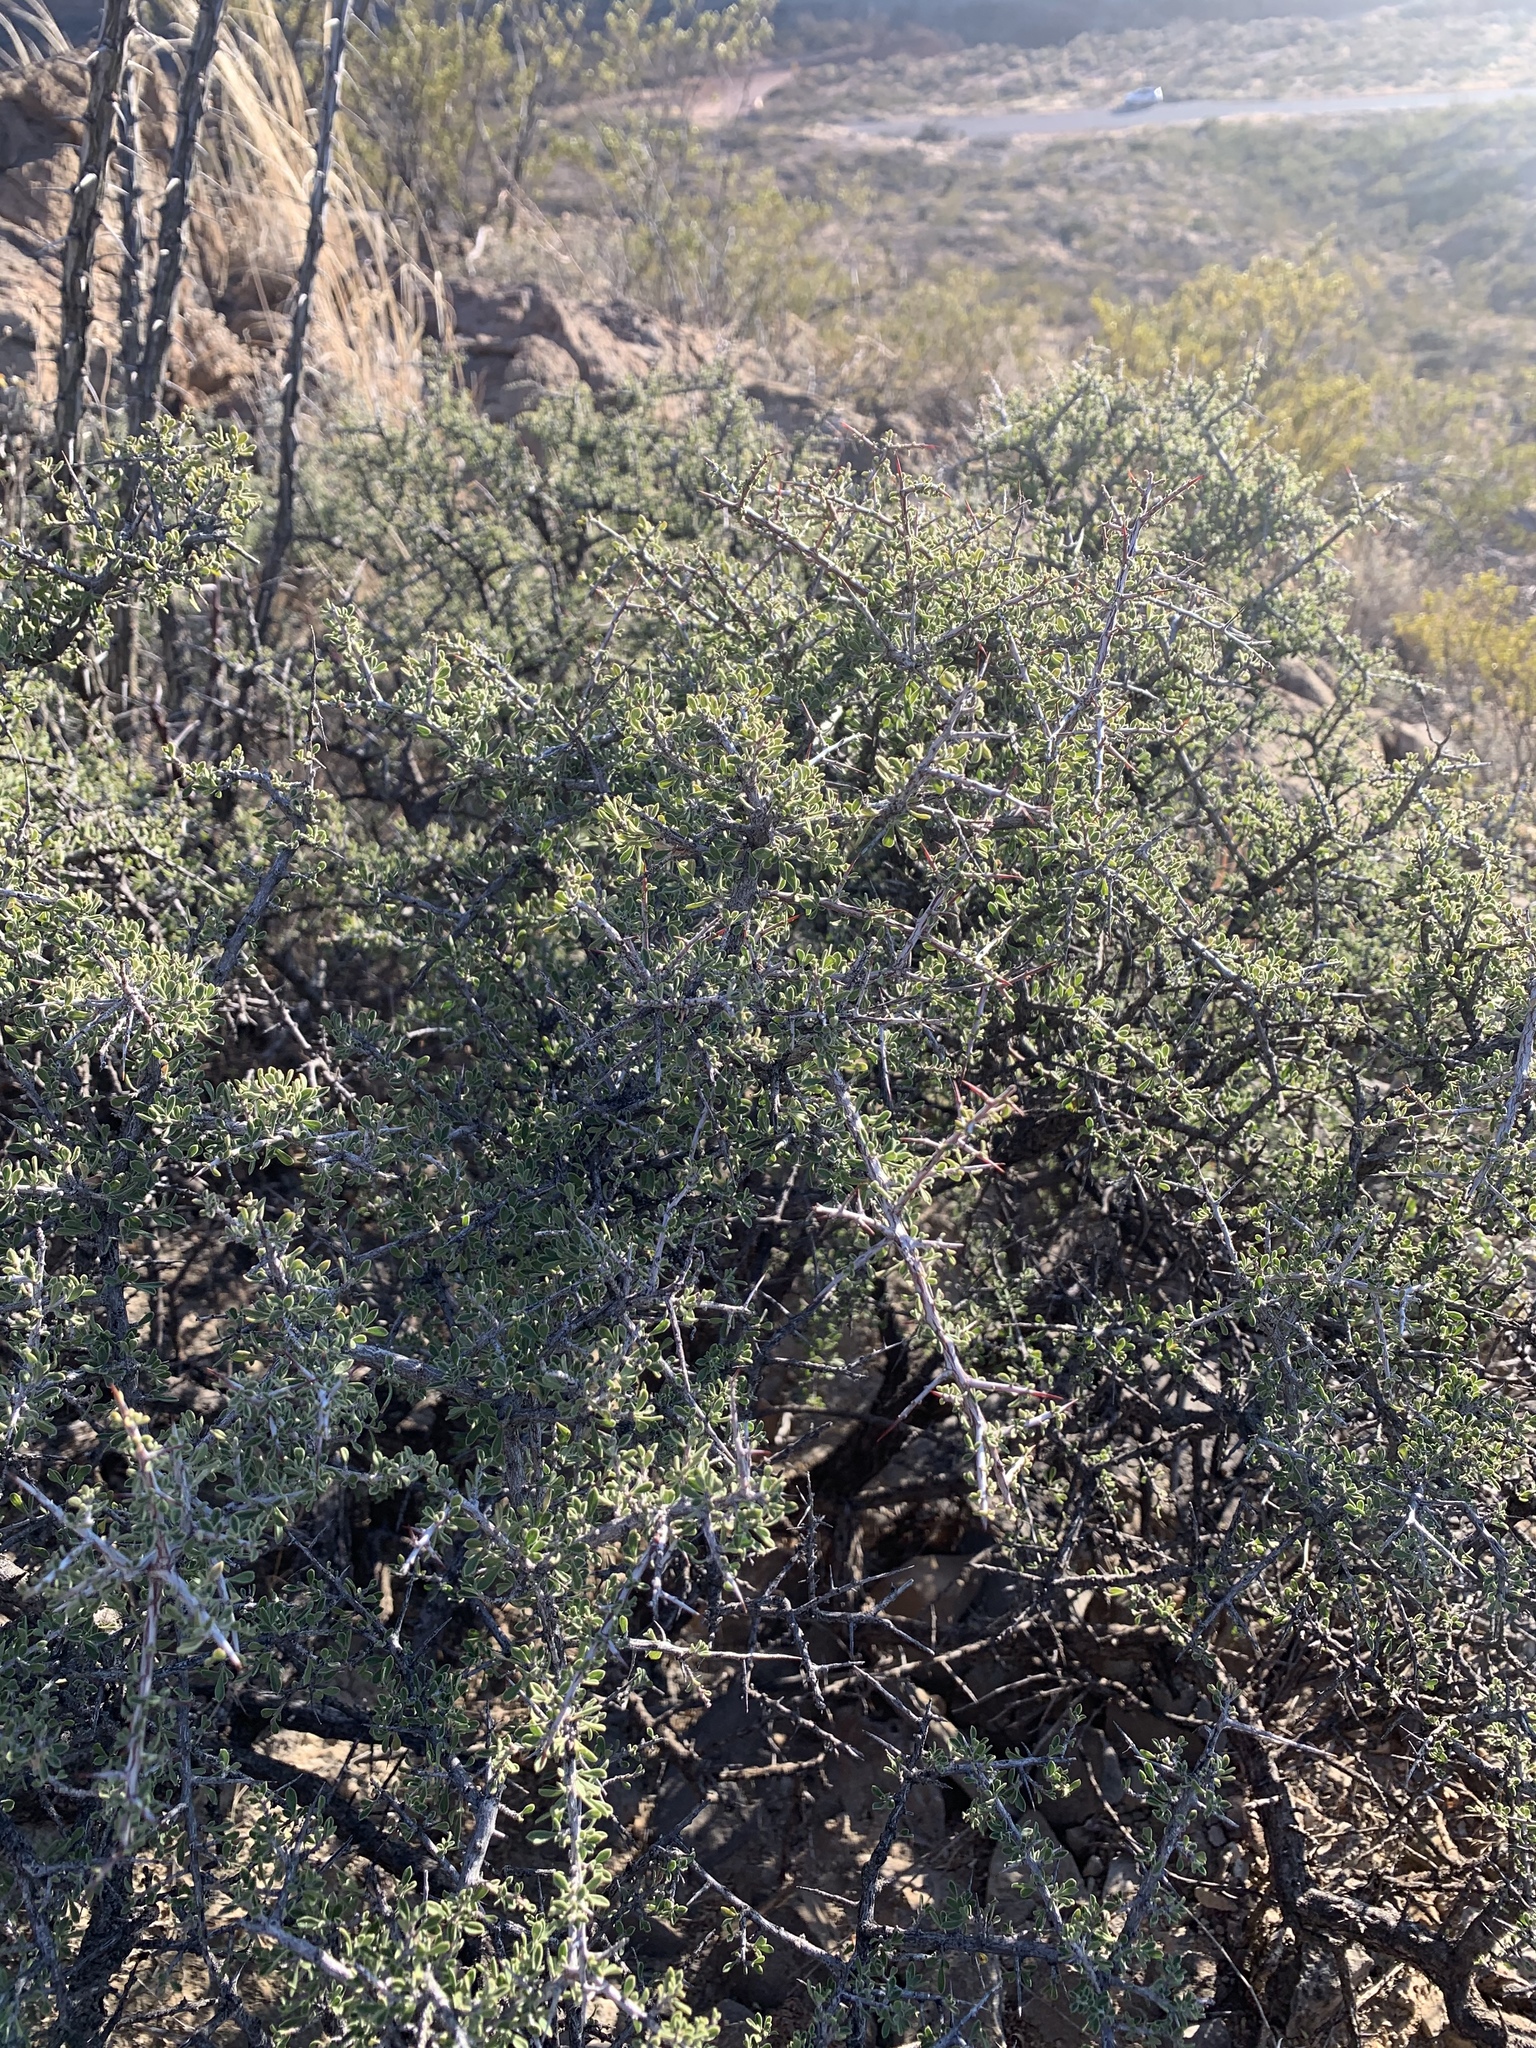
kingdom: Plantae
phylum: Tracheophyta
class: Magnoliopsida
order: Rosales
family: Rhamnaceae
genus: Condalia
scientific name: Condalia warnockii
